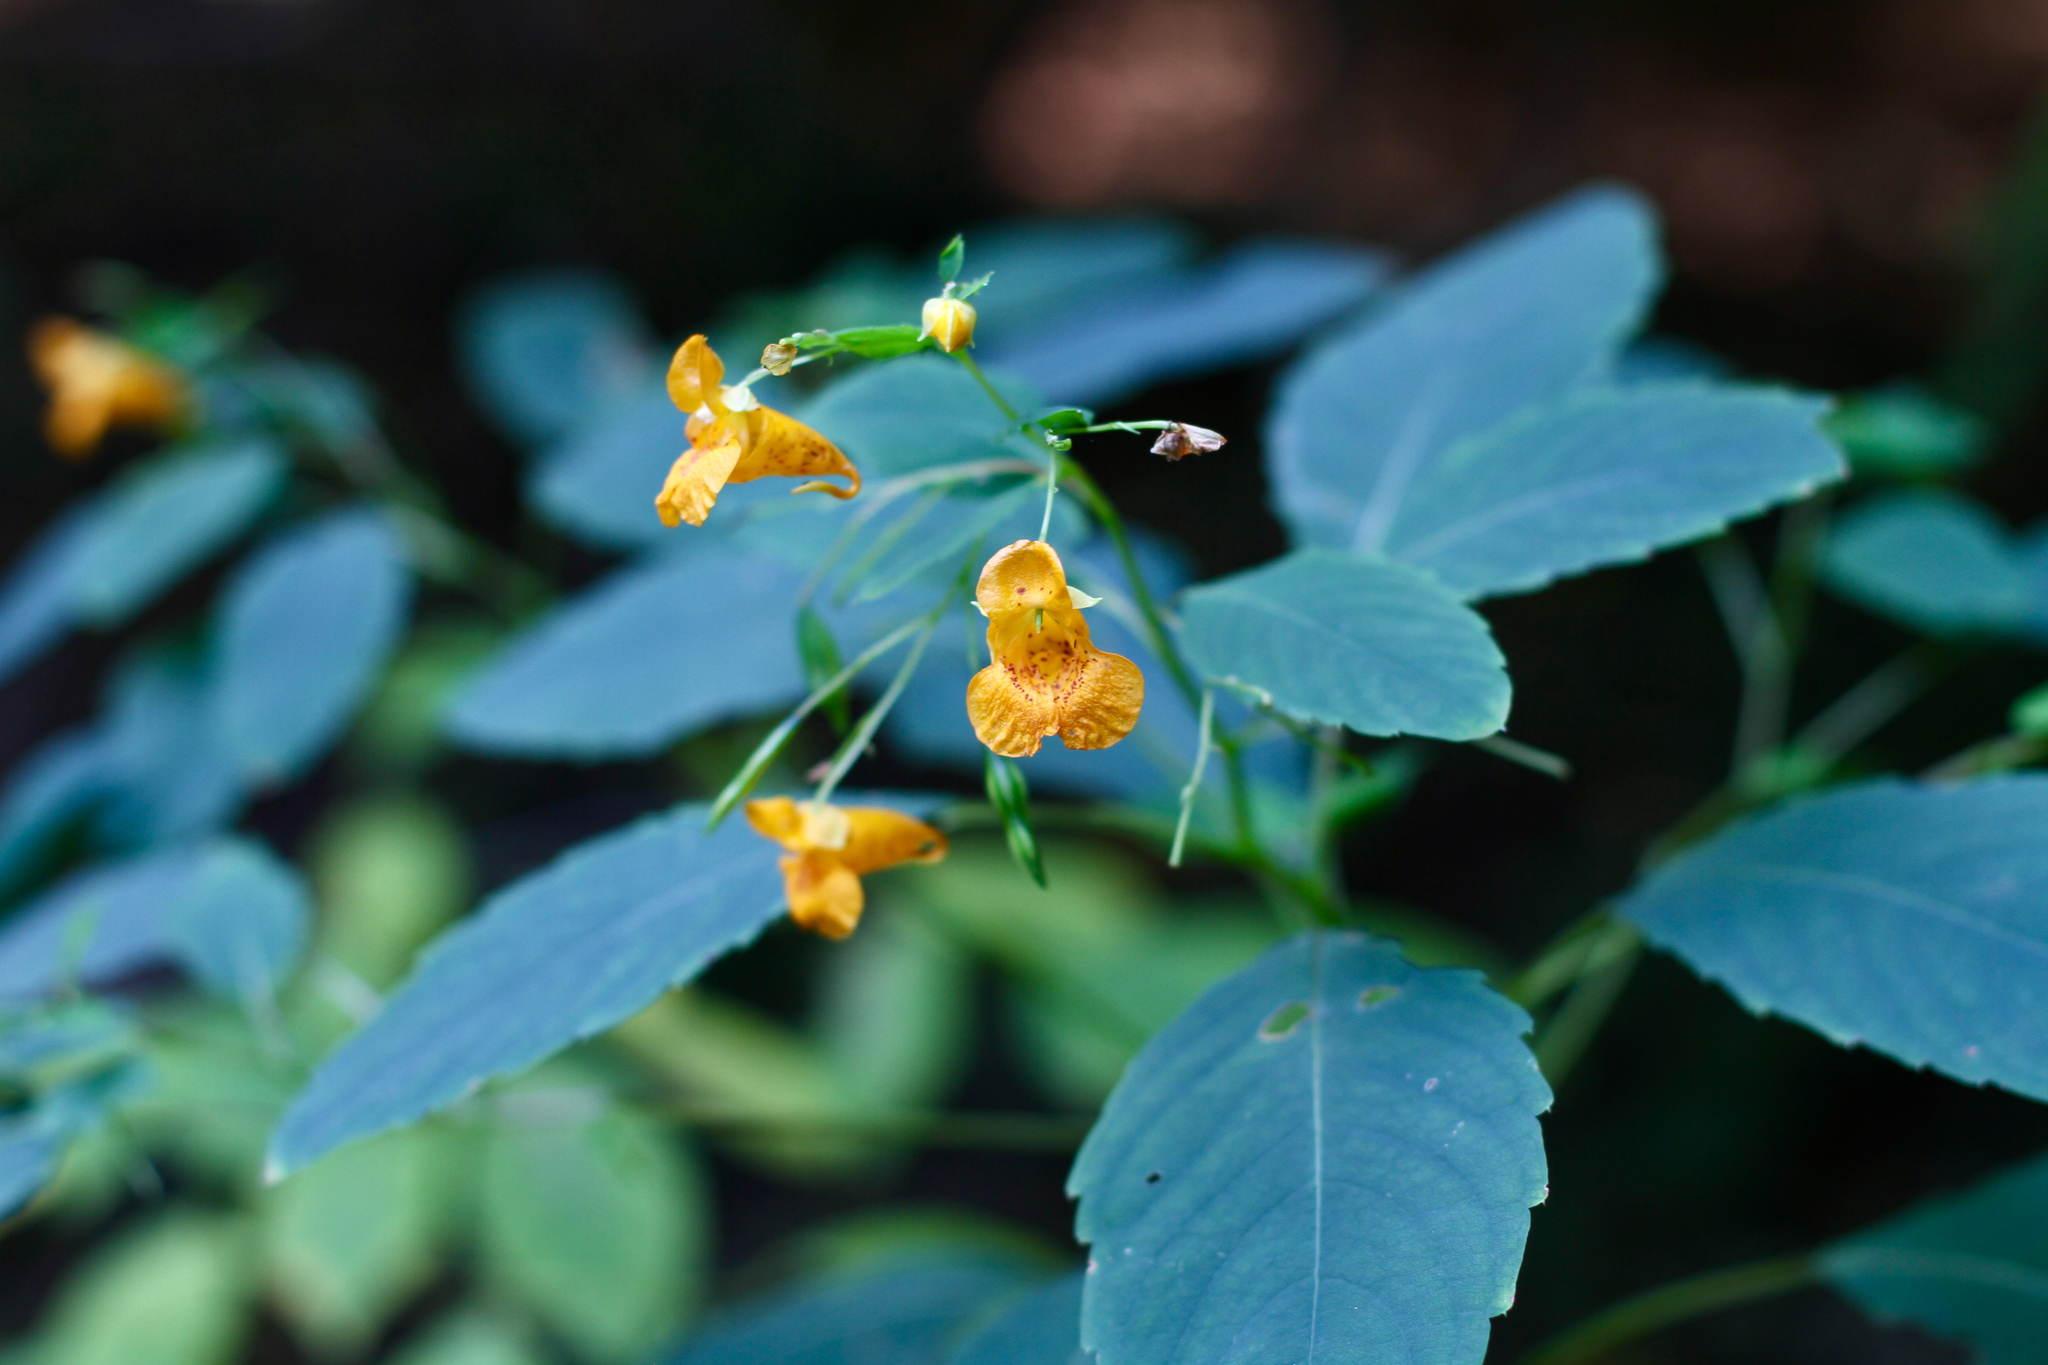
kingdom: Plantae
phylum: Tracheophyta
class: Magnoliopsida
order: Ericales
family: Balsaminaceae
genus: Impatiens
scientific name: Impatiens capensis
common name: Orange balsam
